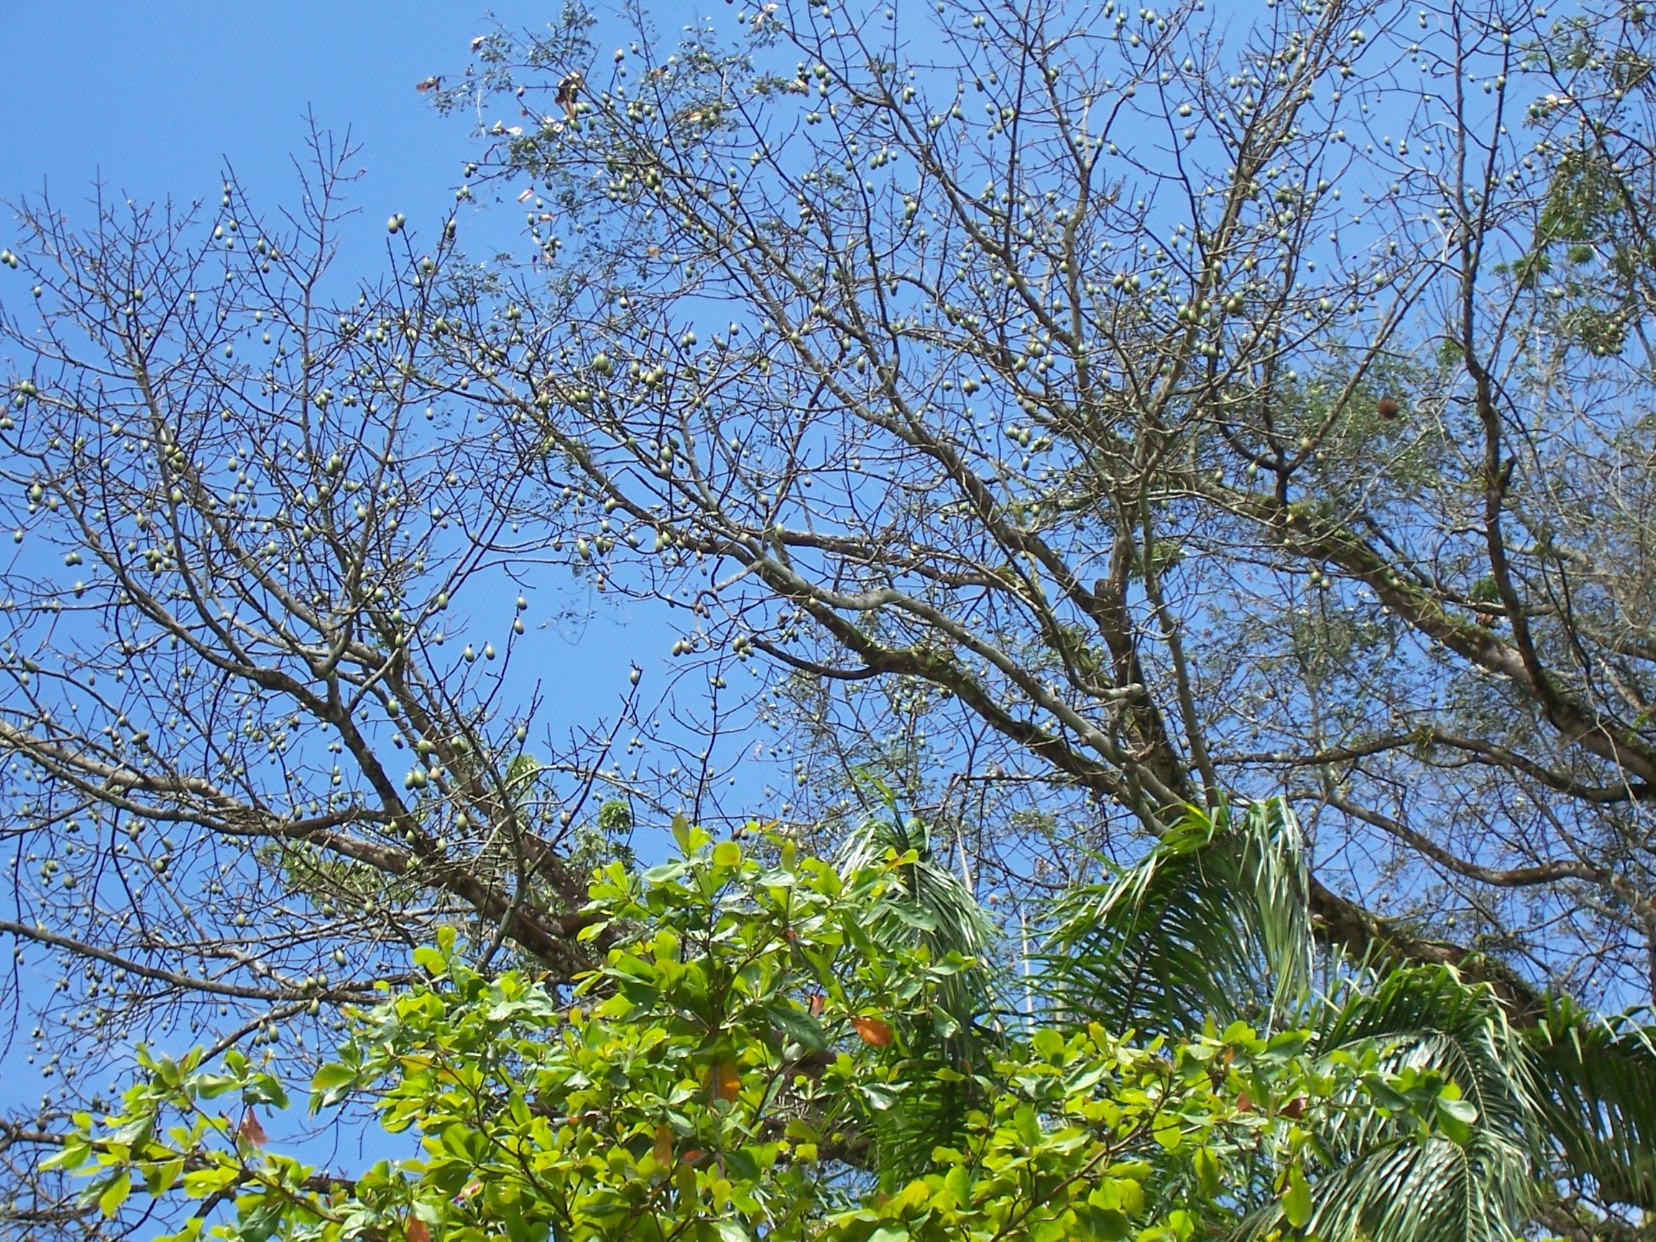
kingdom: Plantae
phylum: Tracheophyta
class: Magnoliopsida
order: Malvales
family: Malvaceae
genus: Ceiba
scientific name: Ceiba pentandra
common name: Kapok
